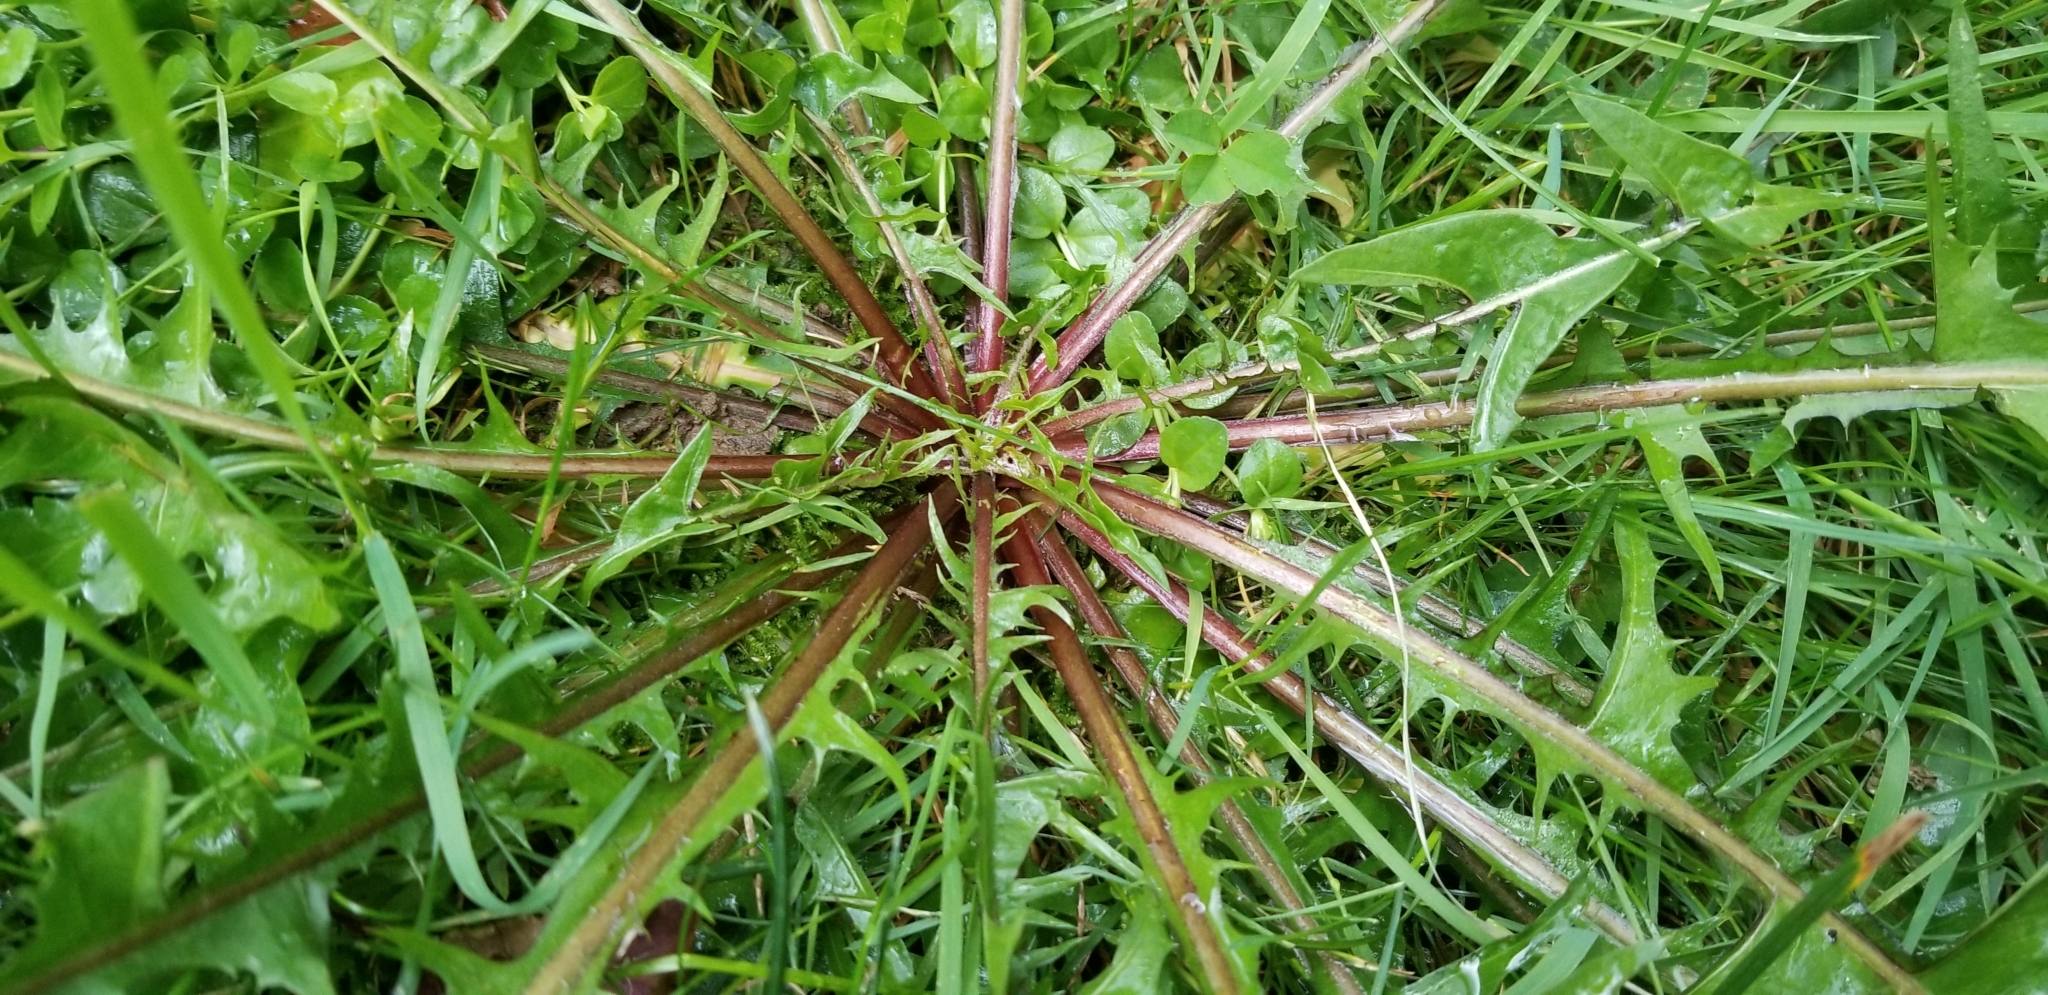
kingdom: Plantae
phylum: Tracheophyta
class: Magnoliopsida
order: Asterales
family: Asteraceae
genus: Taraxacum
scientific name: Taraxacum officinale
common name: Common dandelion
